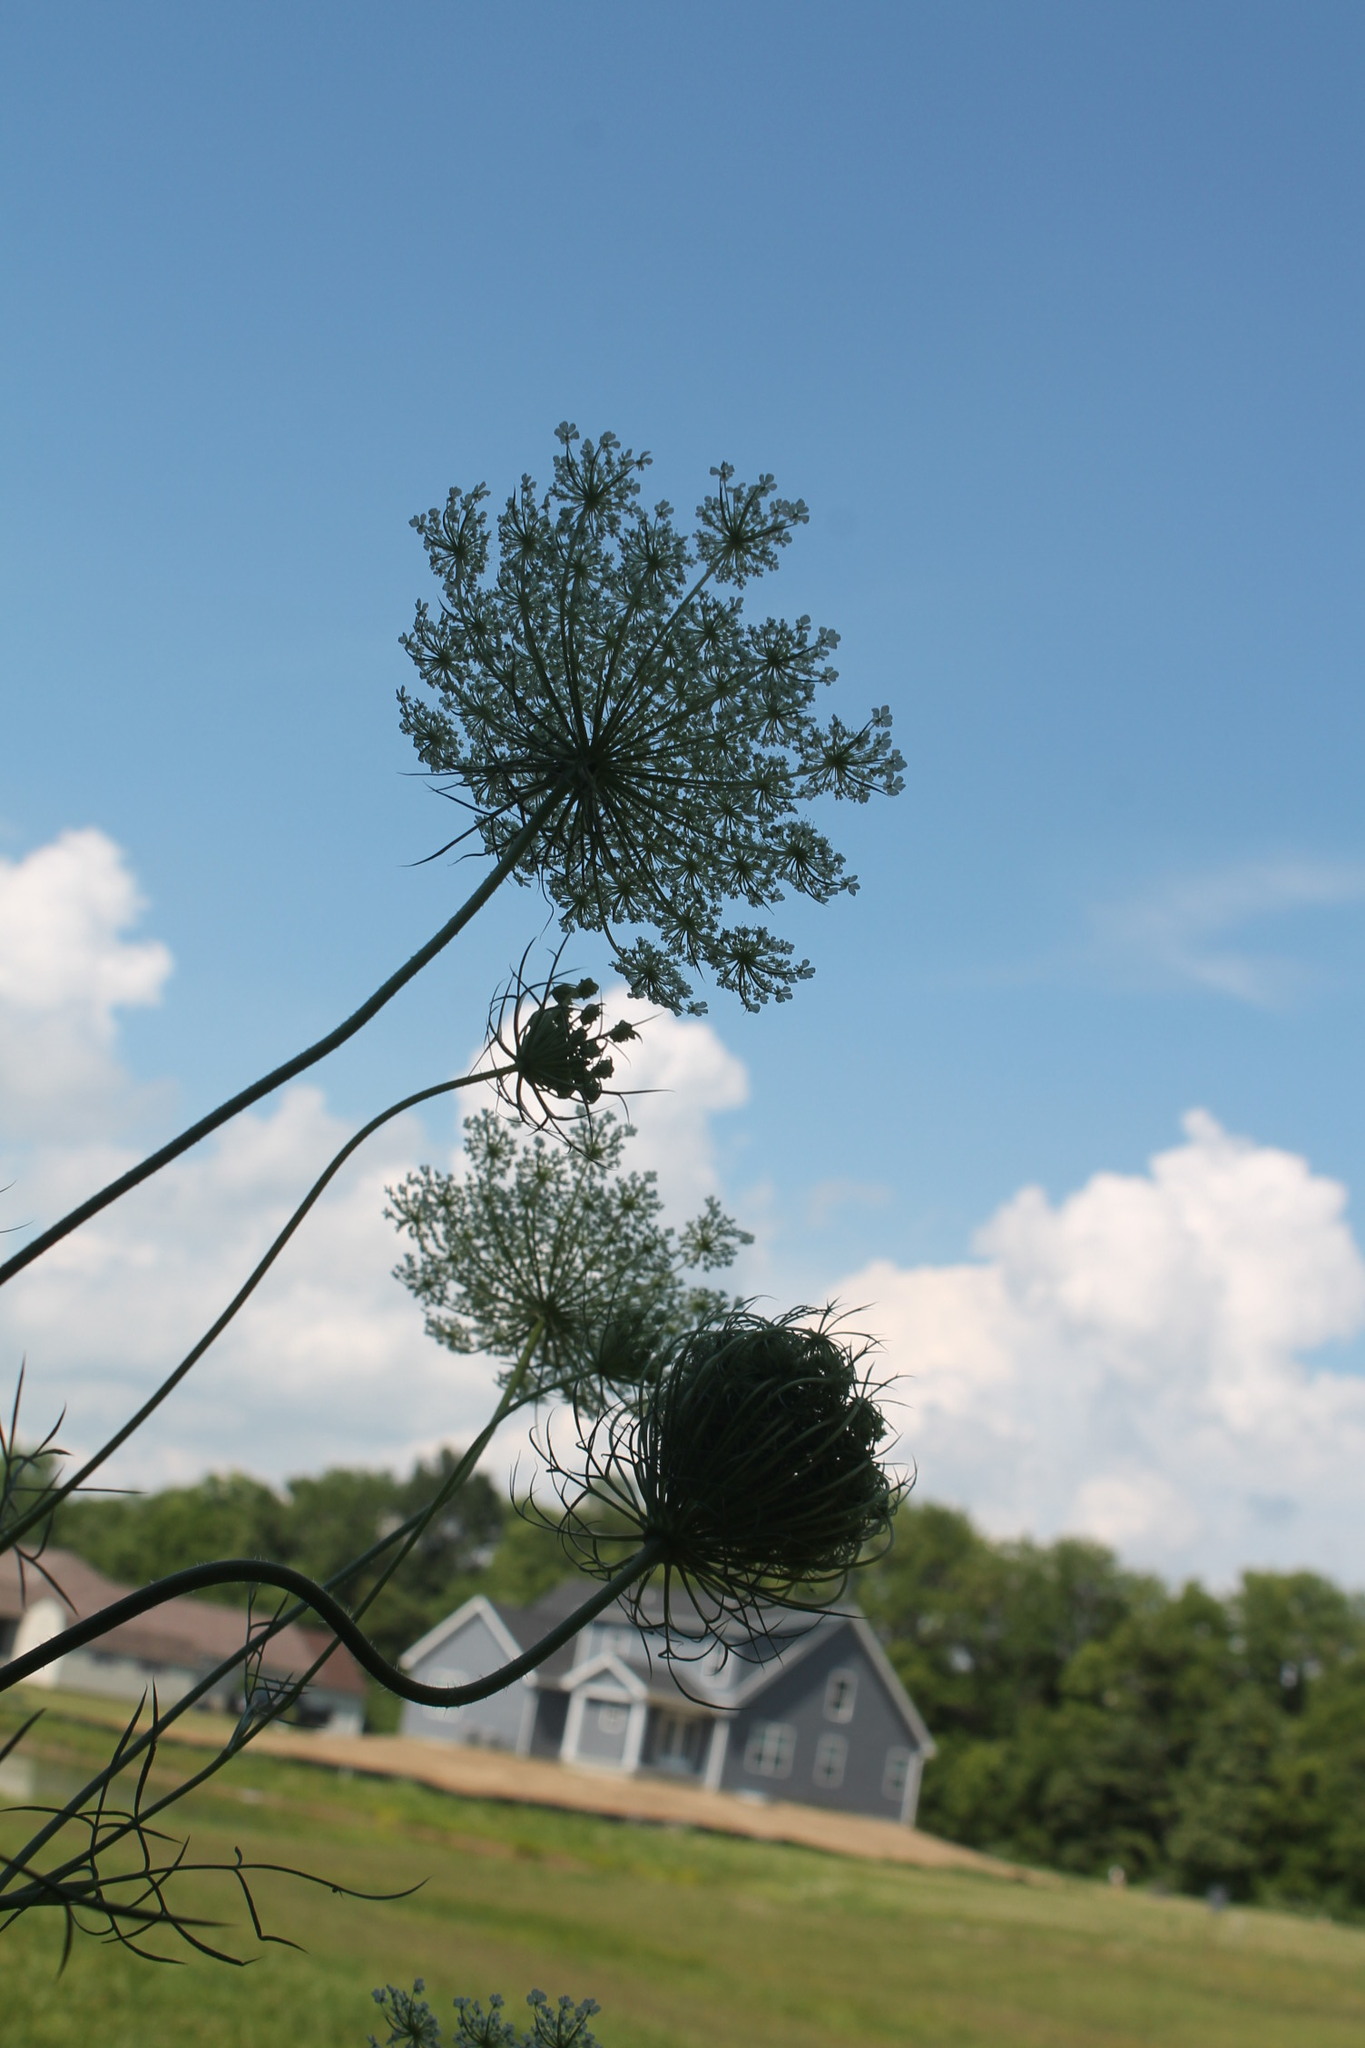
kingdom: Plantae
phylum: Tracheophyta
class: Magnoliopsida
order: Apiales
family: Apiaceae
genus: Daucus
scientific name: Daucus carota
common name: Wild carrot
